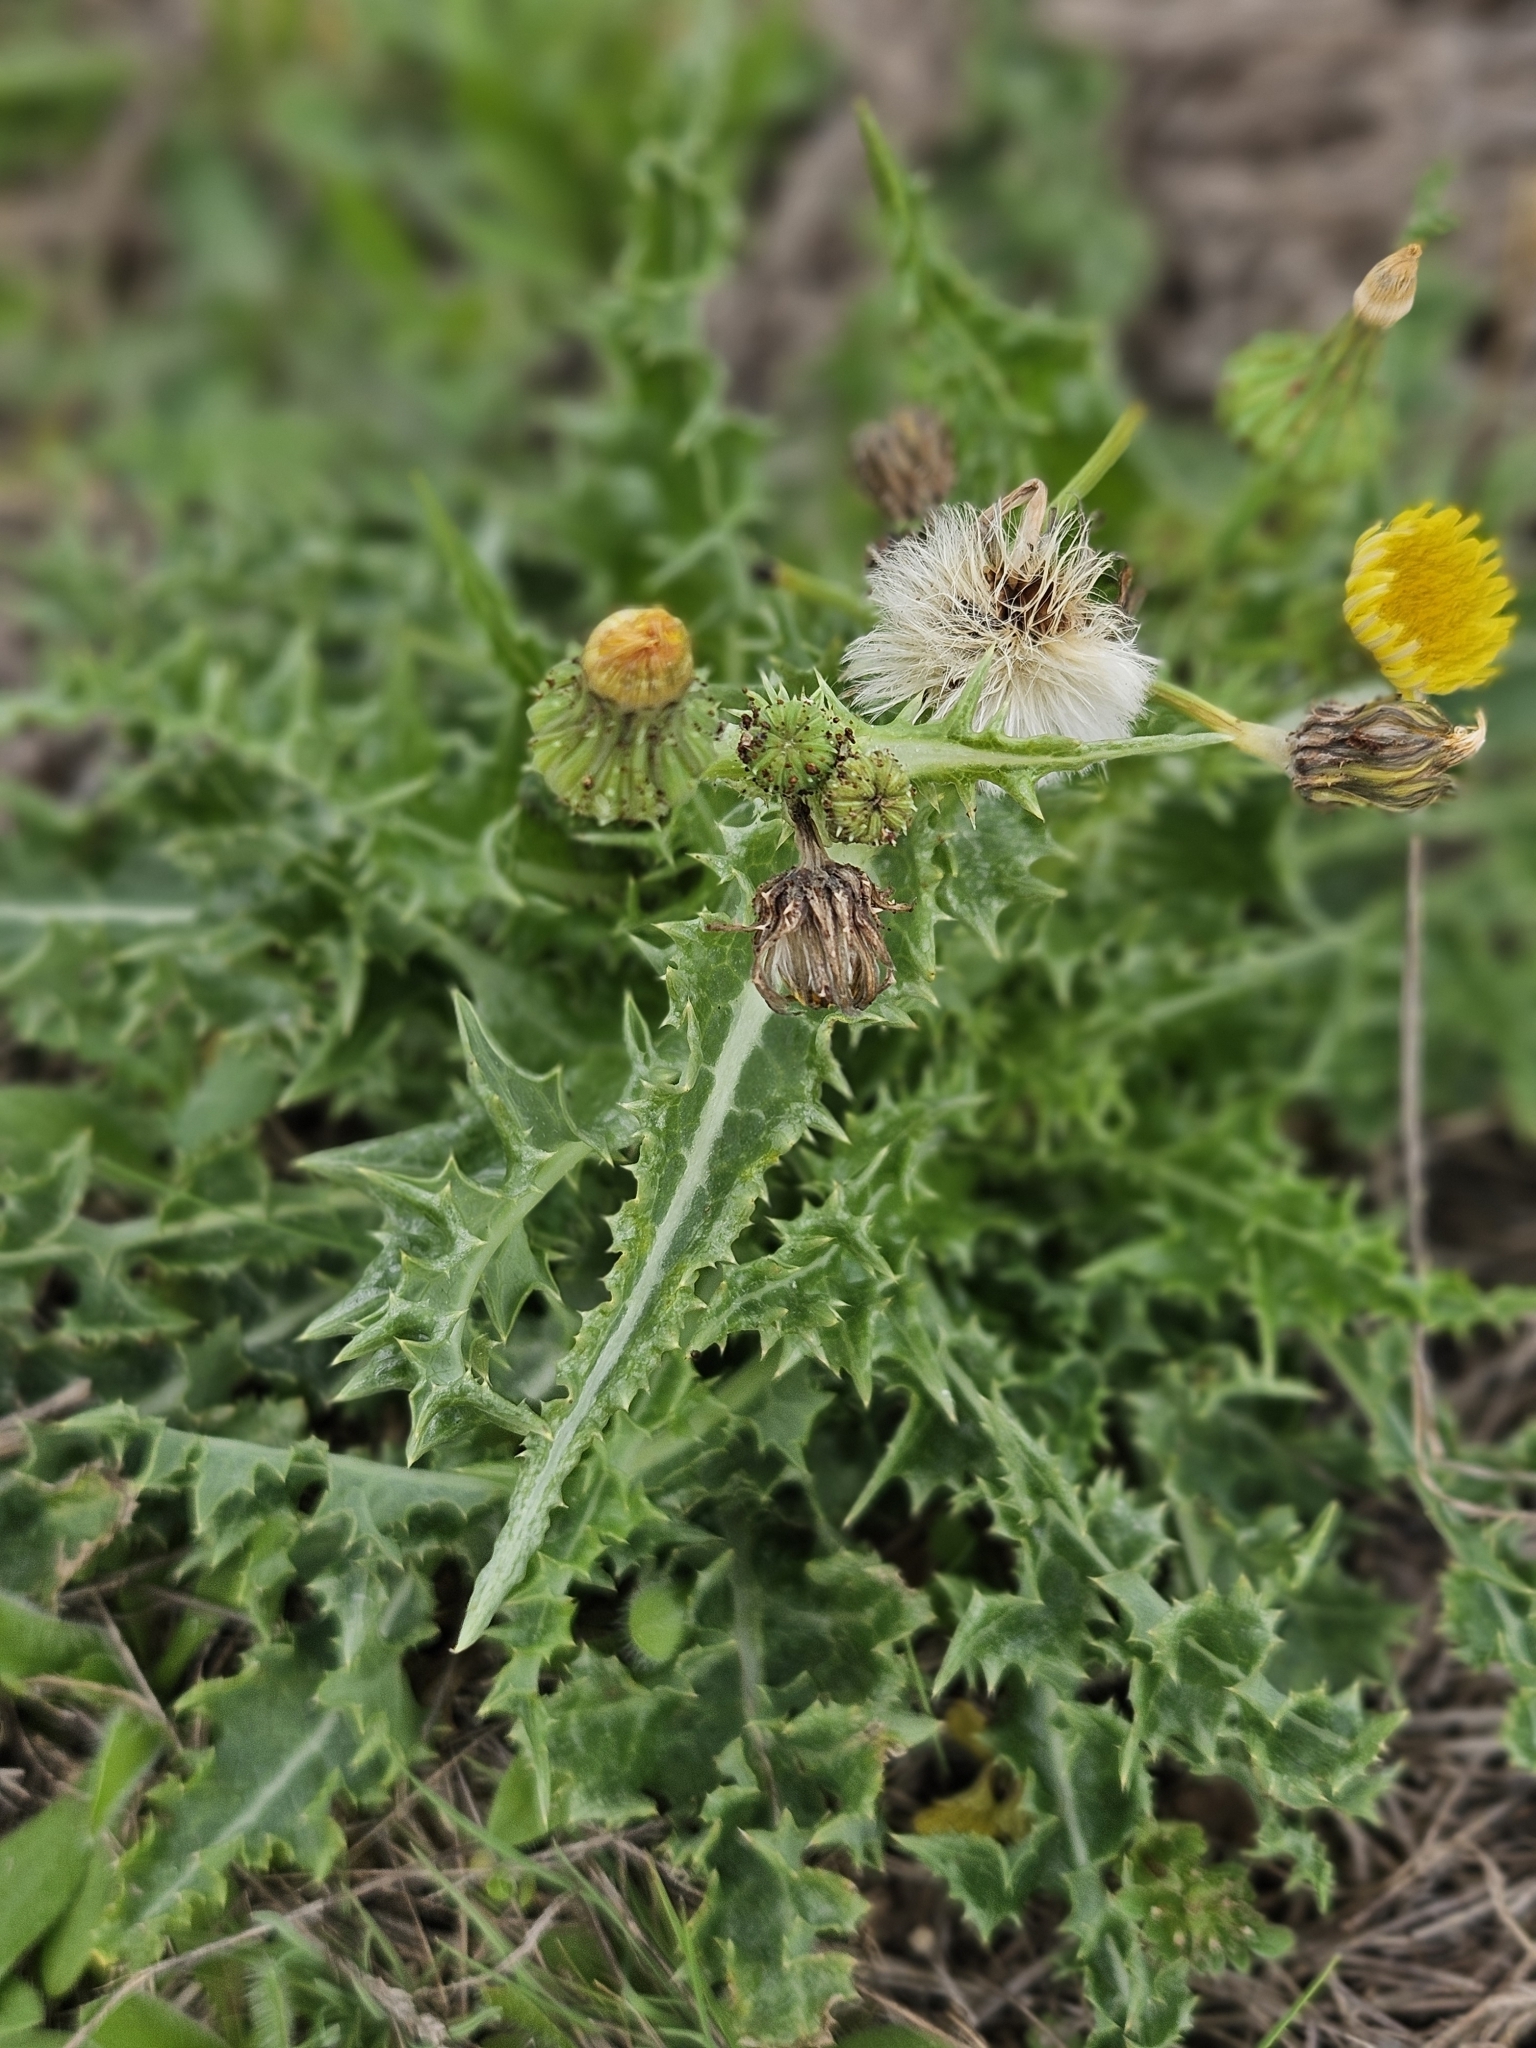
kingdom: Plantae
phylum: Tracheophyta
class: Magnoliopsida
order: Asterales
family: Asteraceae
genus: Sonchus
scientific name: Sonchus asper
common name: Prickly sow-thistle
